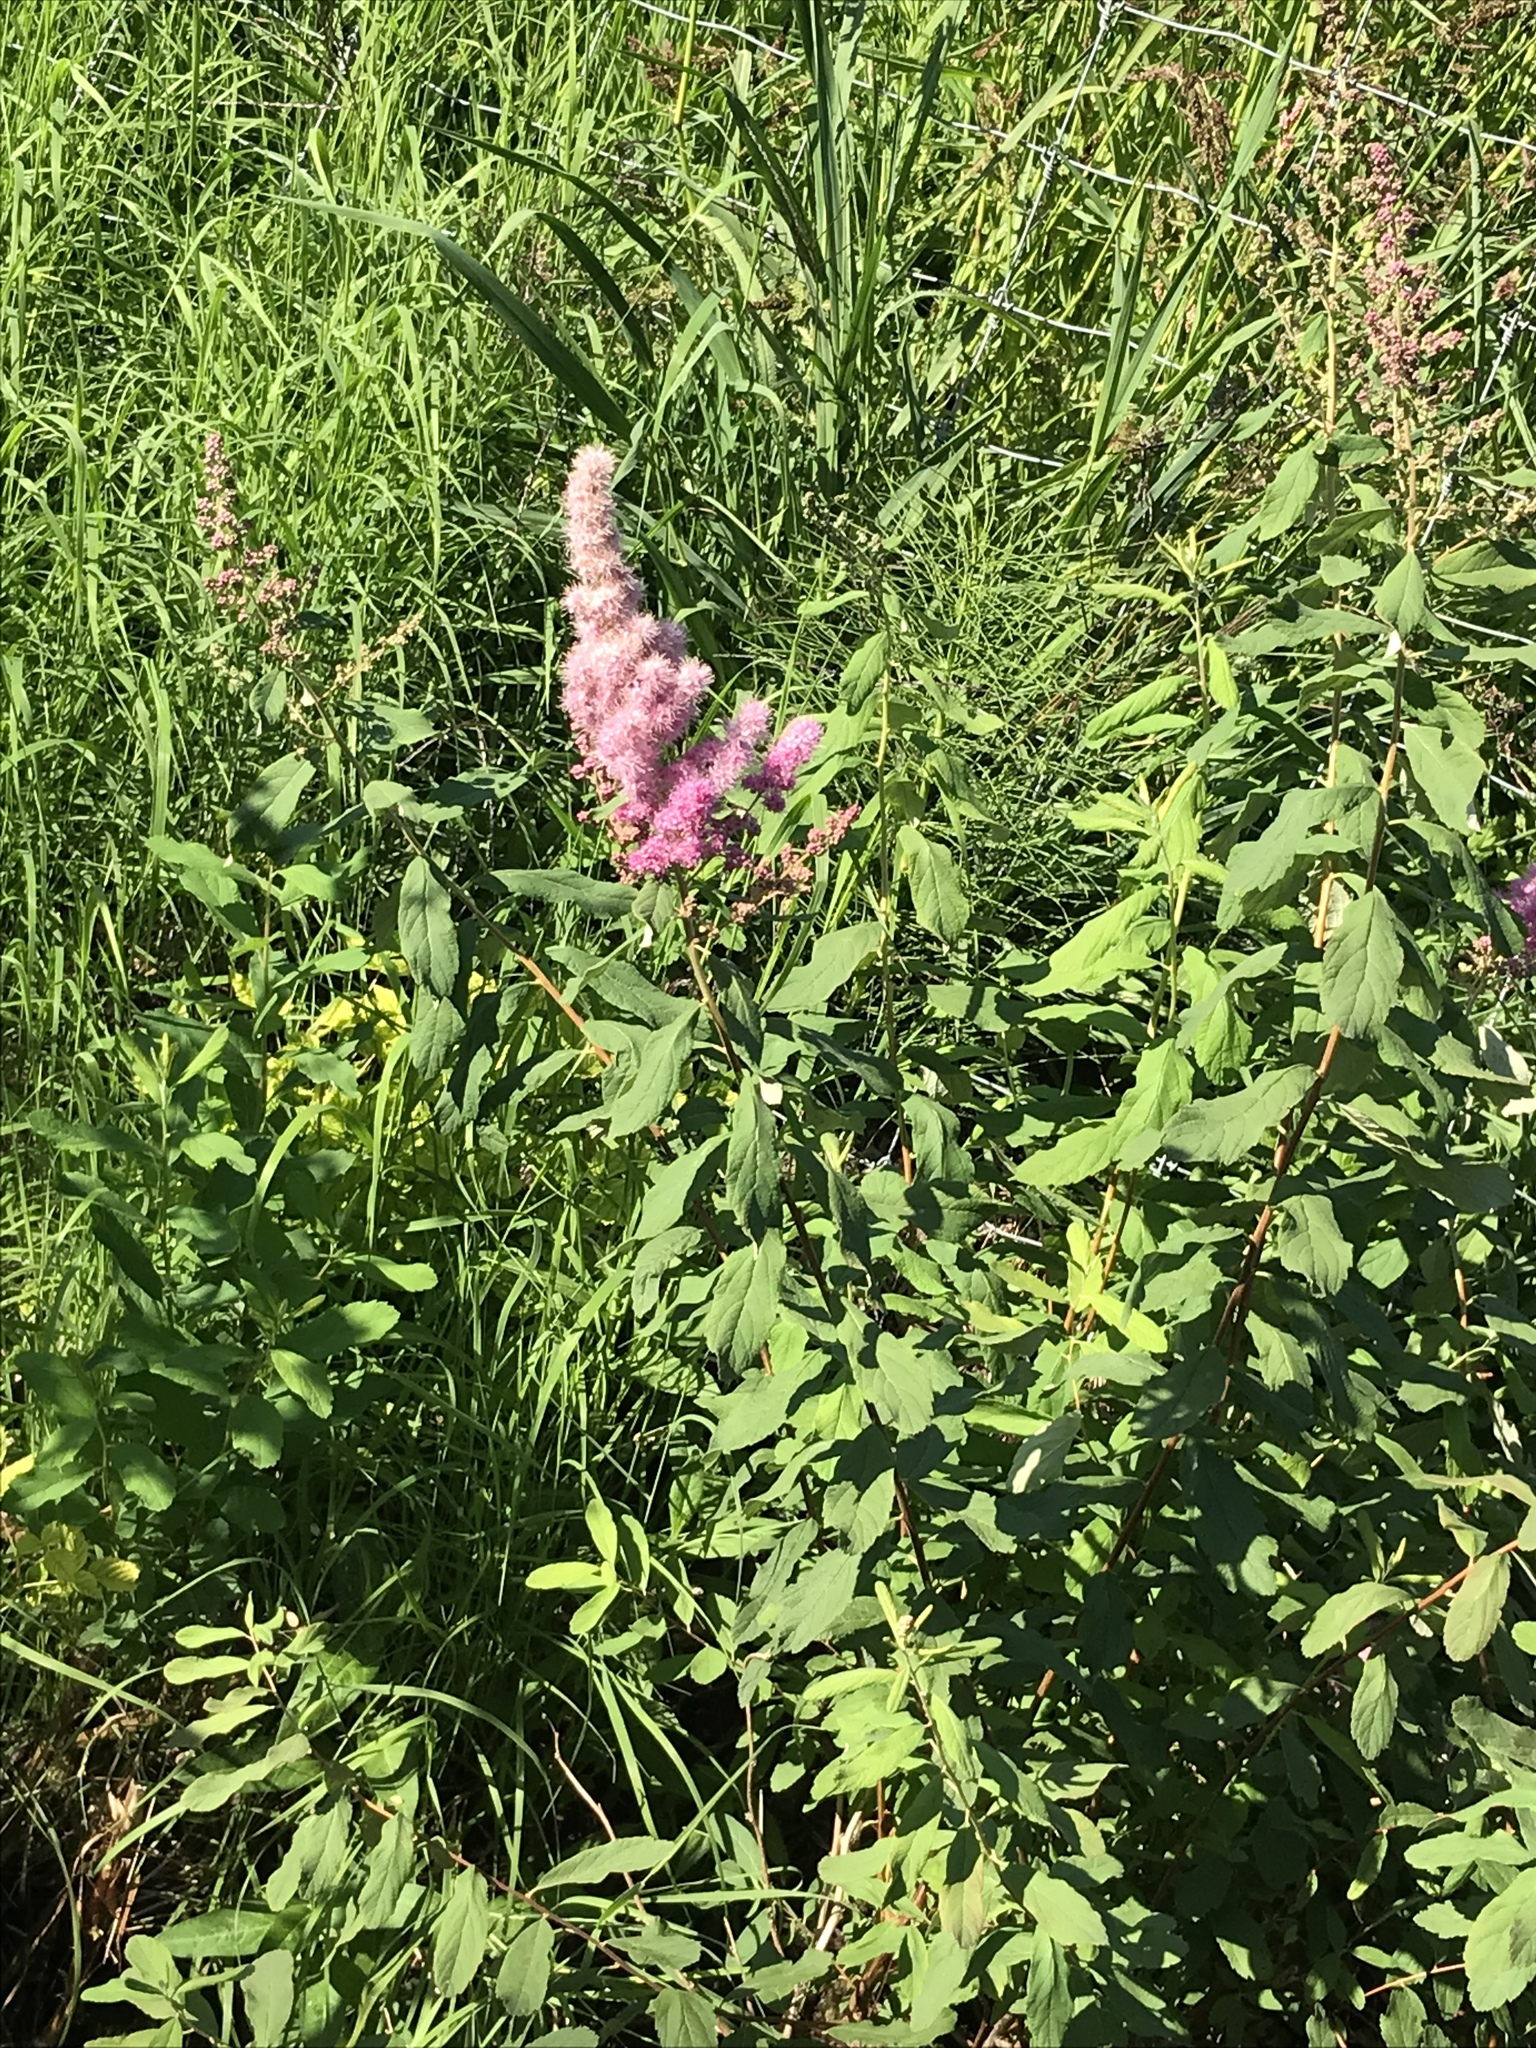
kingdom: Plantae
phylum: Tracheophyta
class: Magnoliopsida
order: Rosales
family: Rosaceae
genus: Spiraea
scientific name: Spiraea douglasii
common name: Steeplebush
